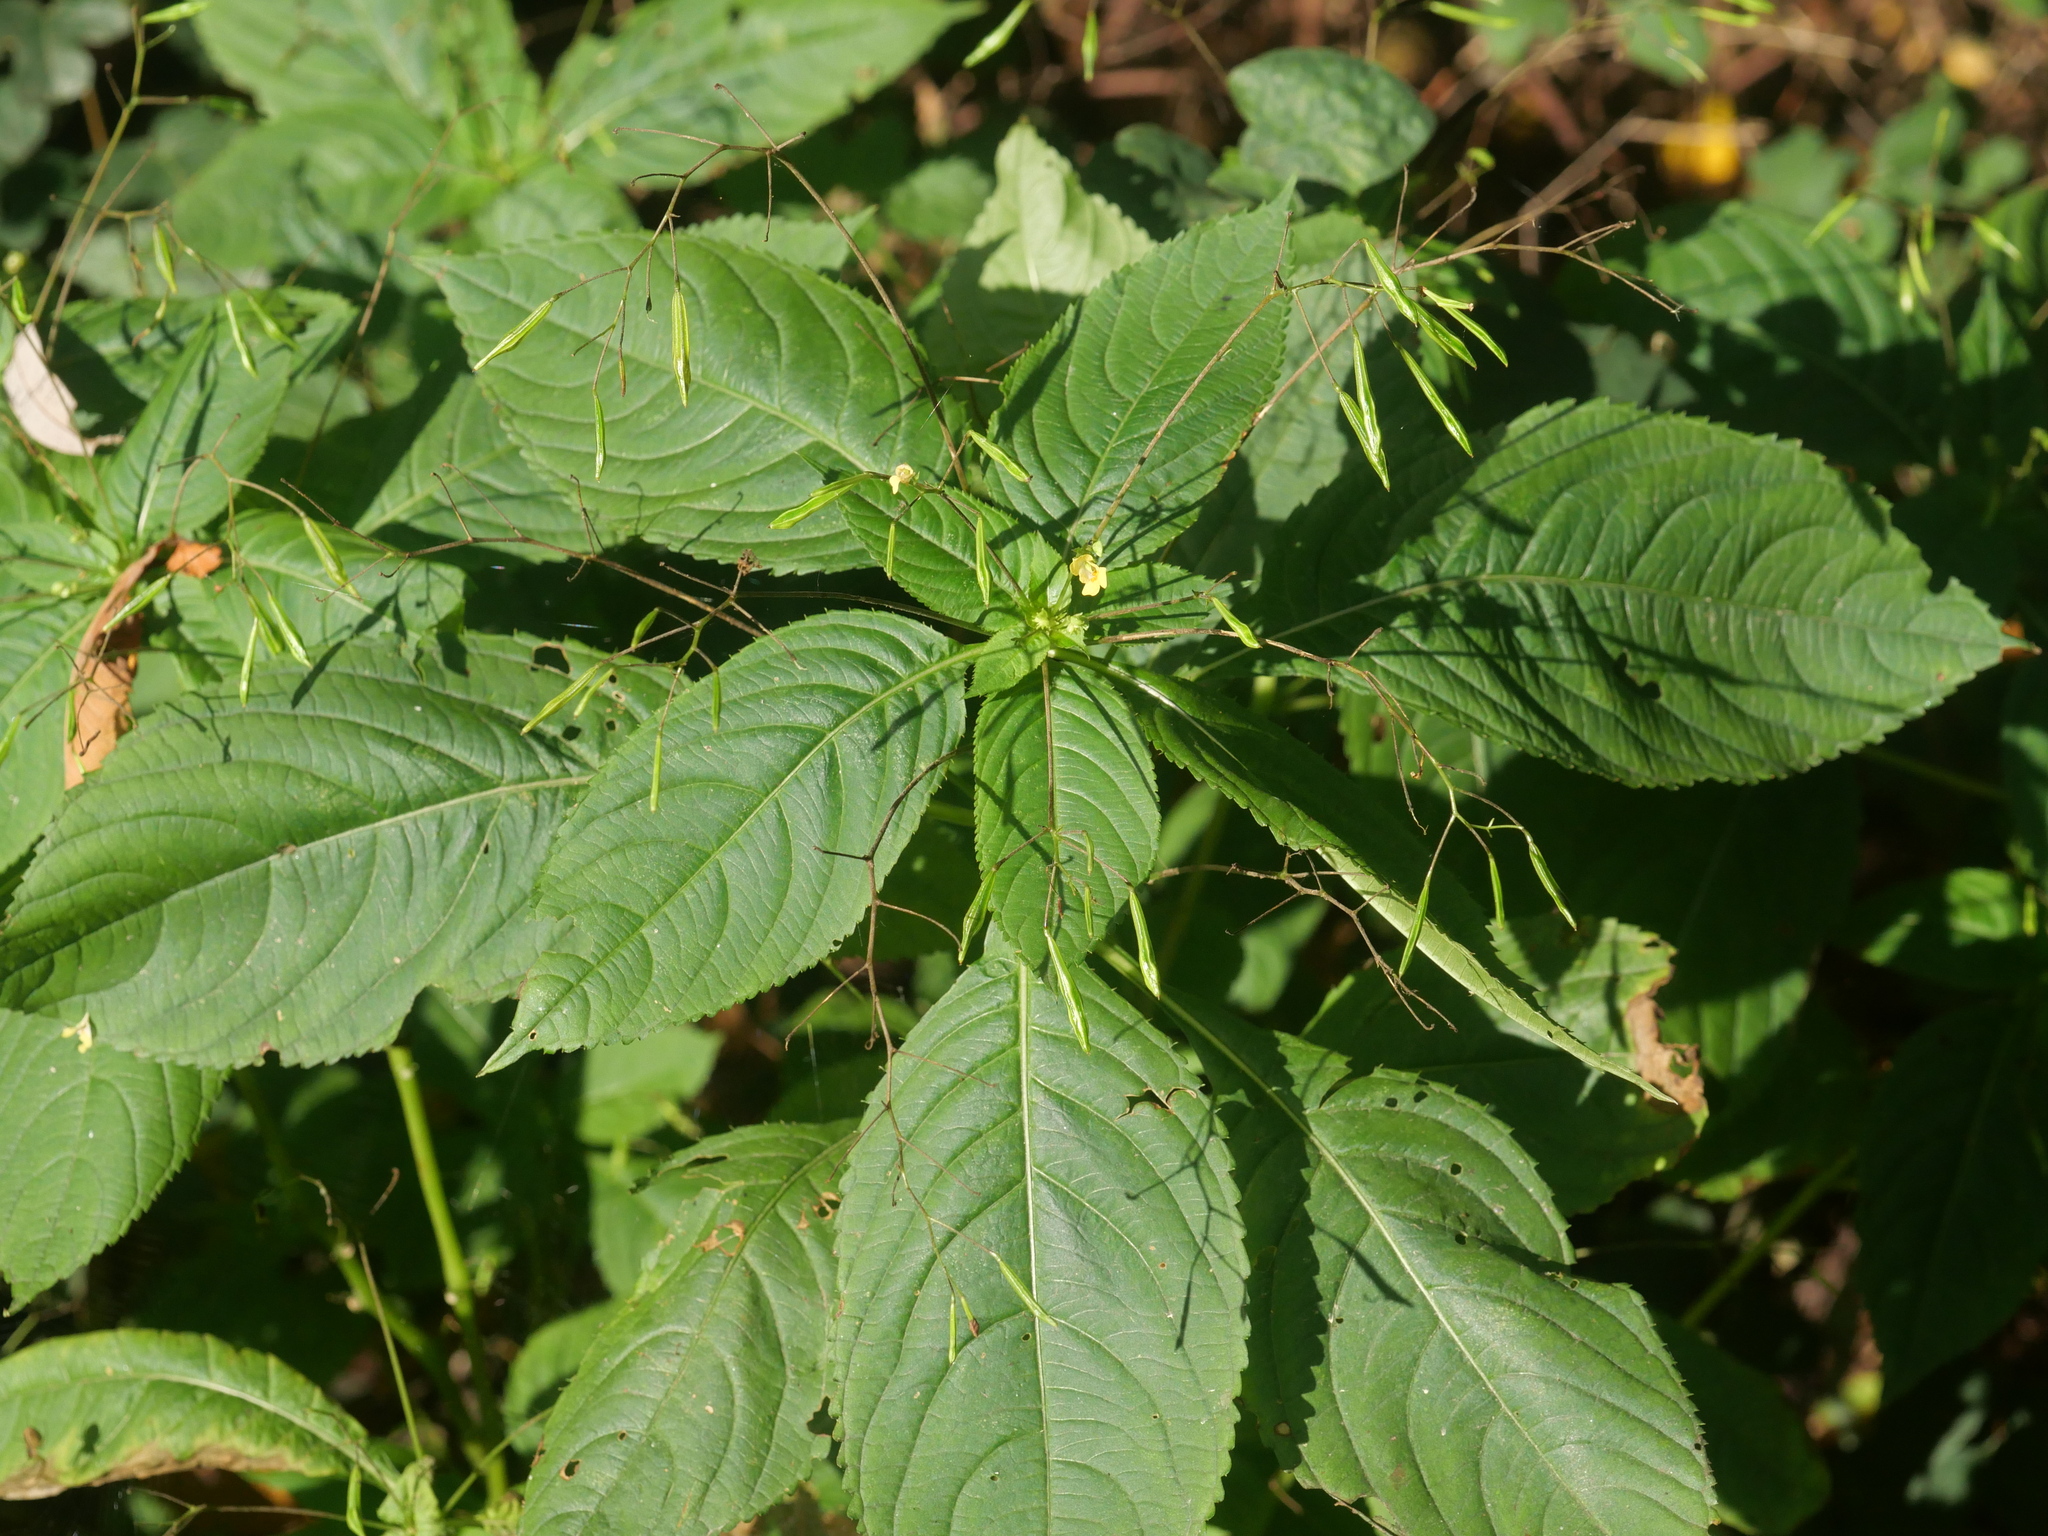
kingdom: Plantae
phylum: Tracheophyta
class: Magnoliopsida
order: Ericales
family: Balsaminaceae
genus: Impatiens
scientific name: Impatiens parviflora
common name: Small balsam
